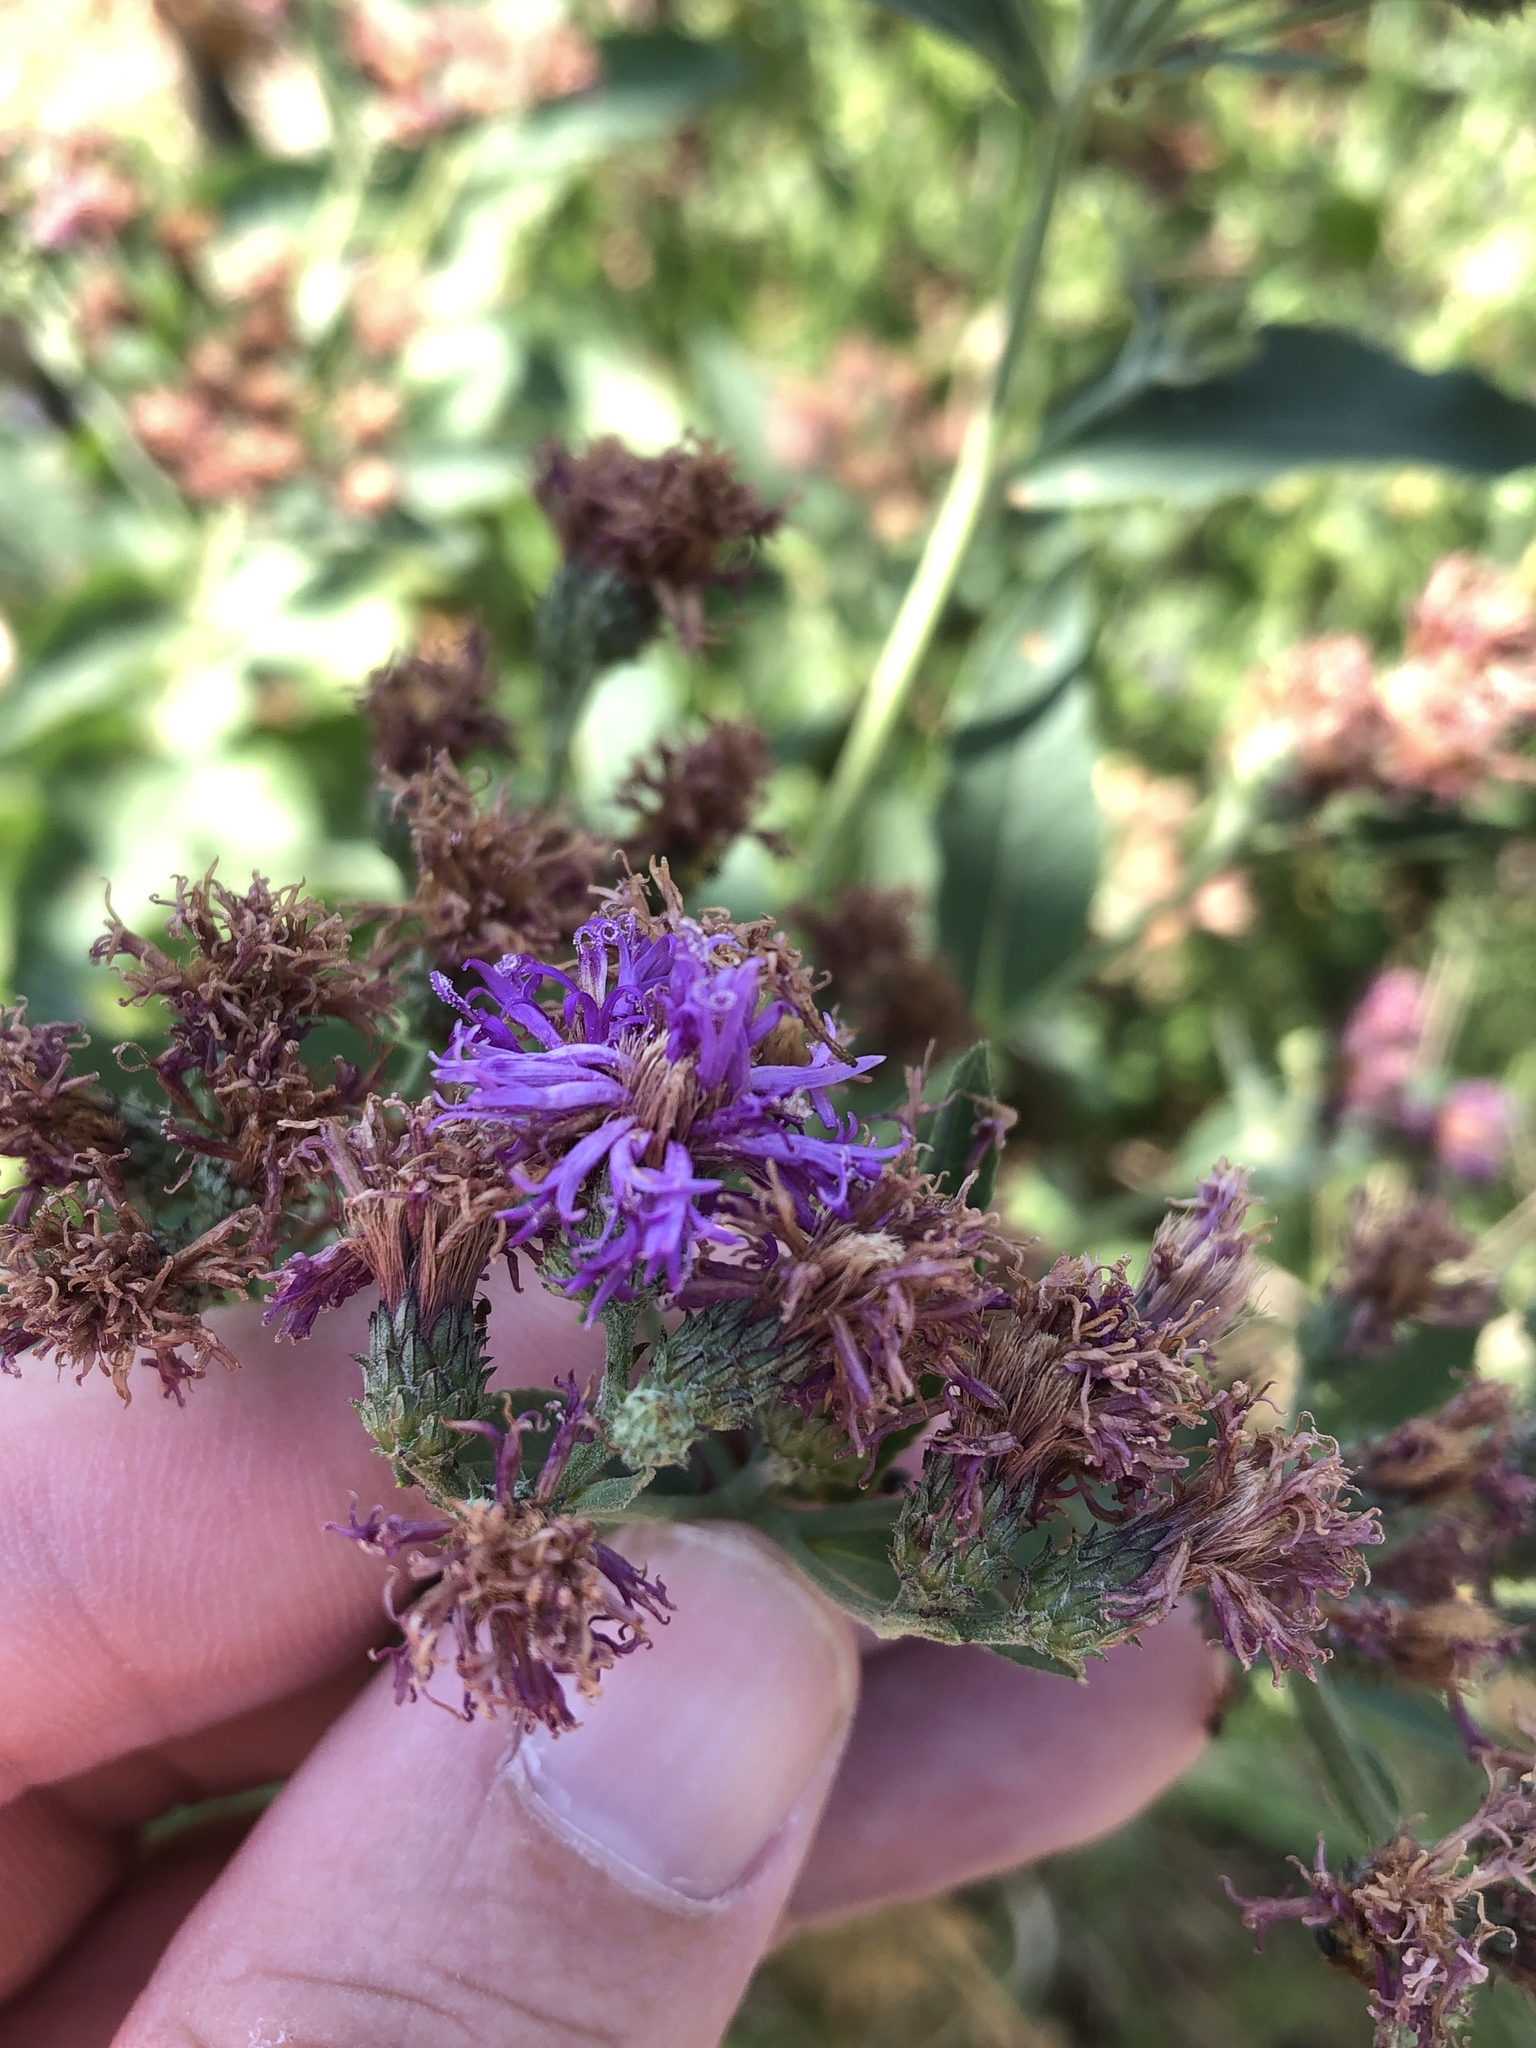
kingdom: Plantae
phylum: Tracheophyta
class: Magnoliopsida
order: Asterales
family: Asteraceae
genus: Vernonia
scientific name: Vernonia baldwinii
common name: Western ironweed
